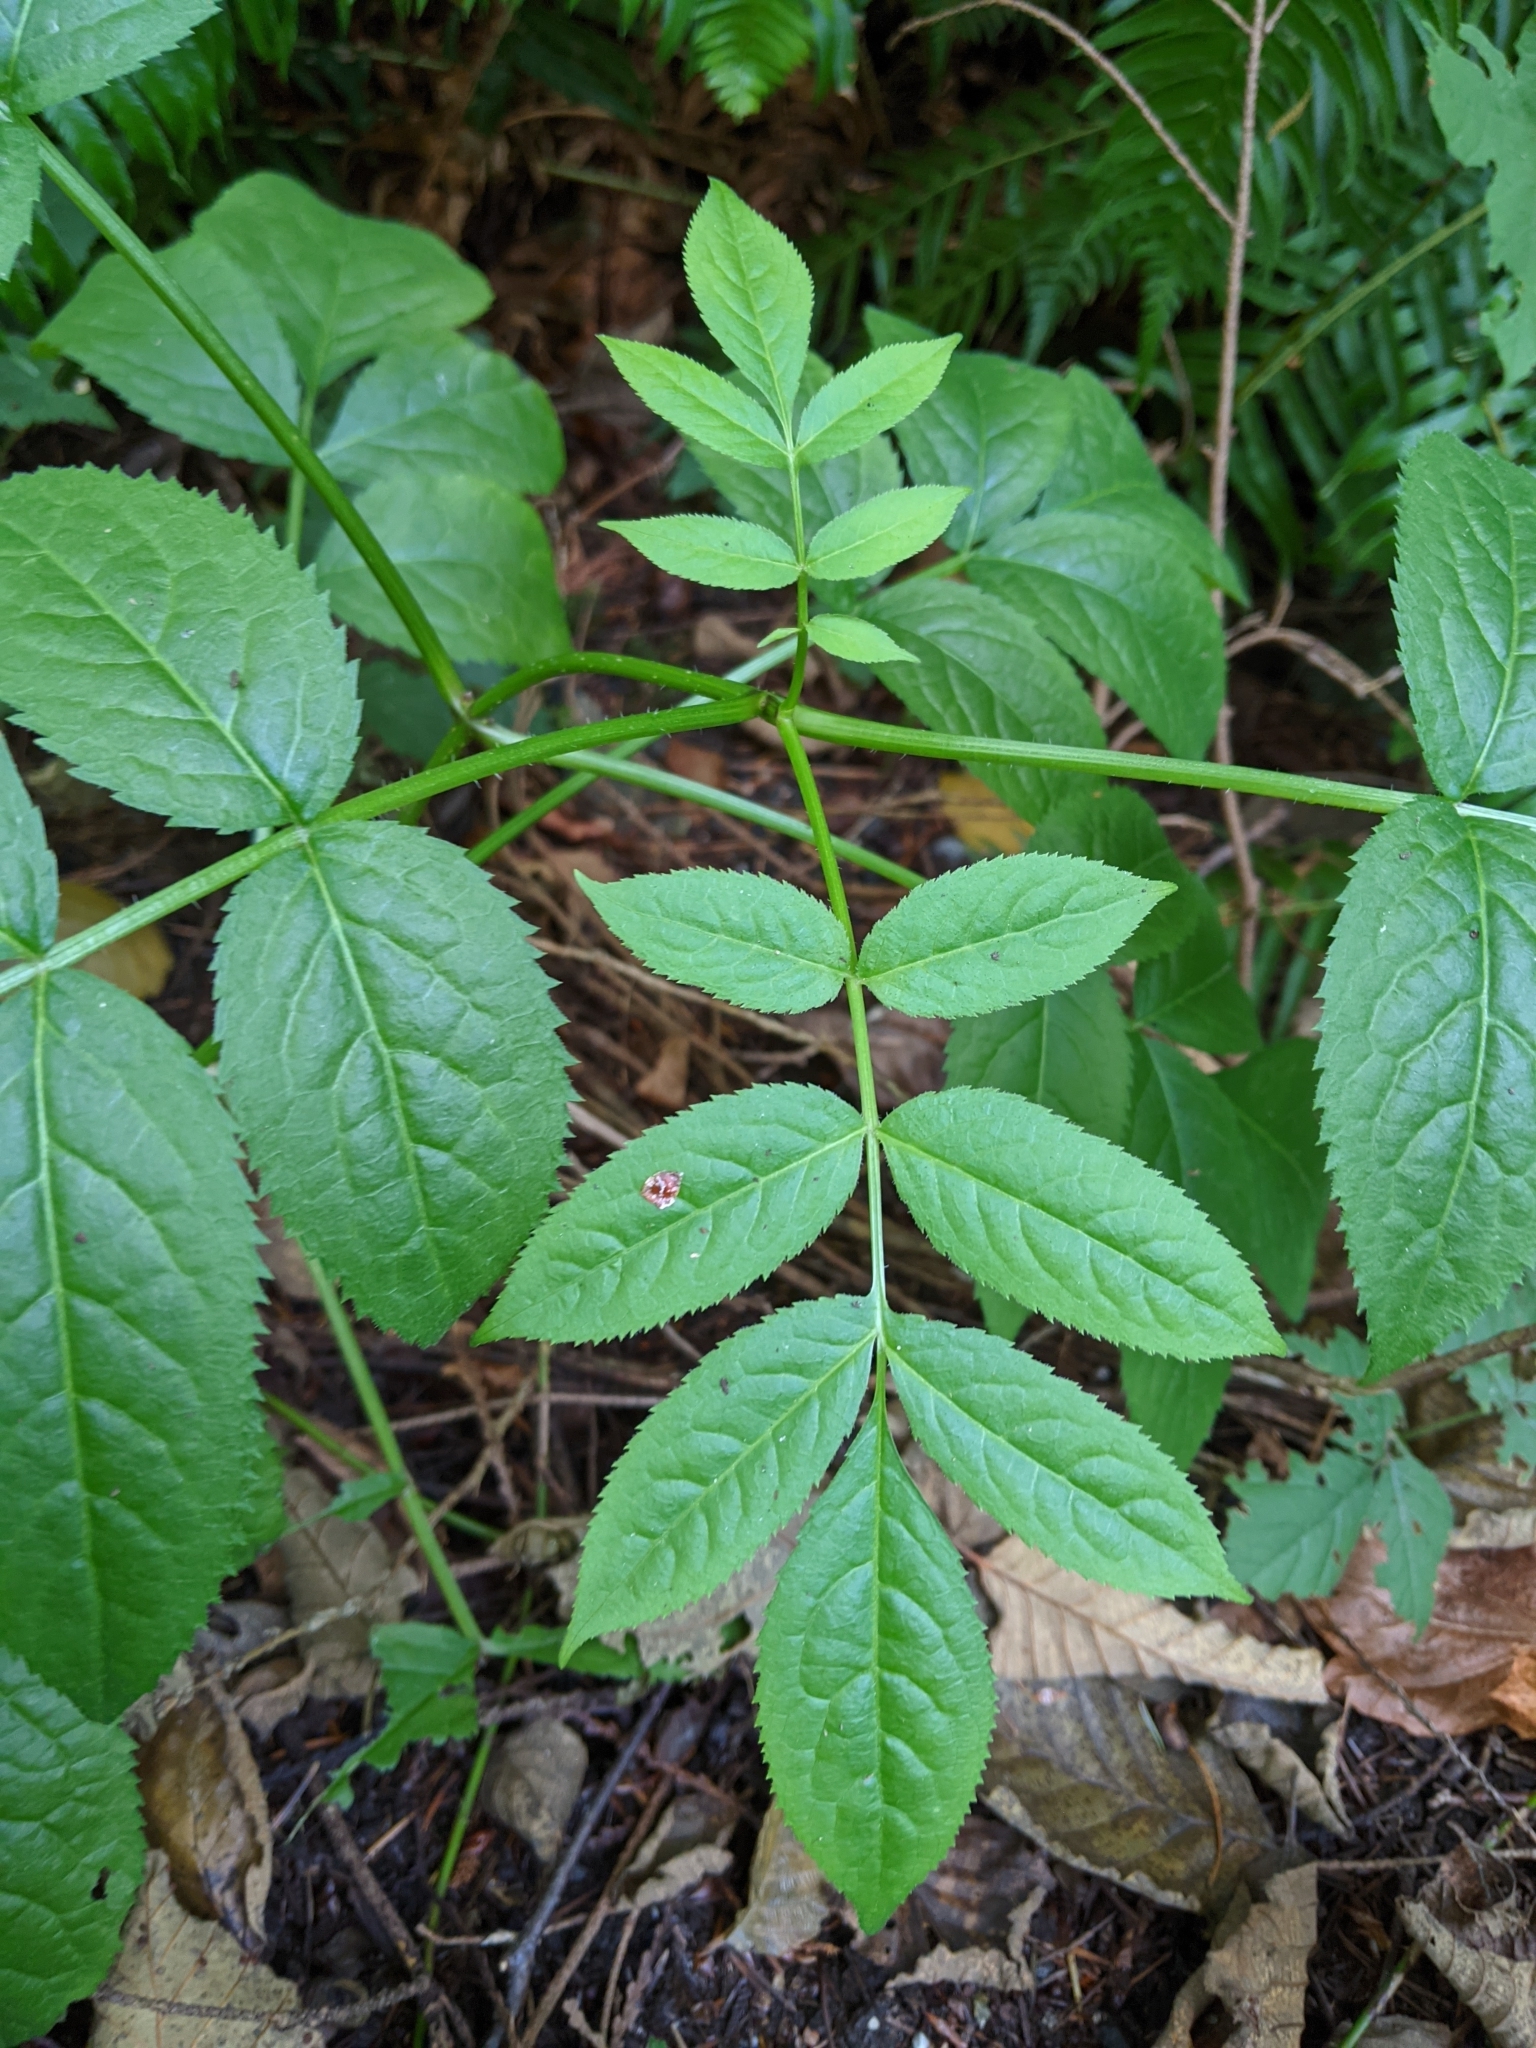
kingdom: Plantae
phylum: Tracheophyta
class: Magnoliopsida
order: Dipsacales
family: Viburnaceae
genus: Sambucus
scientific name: Sambucus racemosa
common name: Red-berried elder
